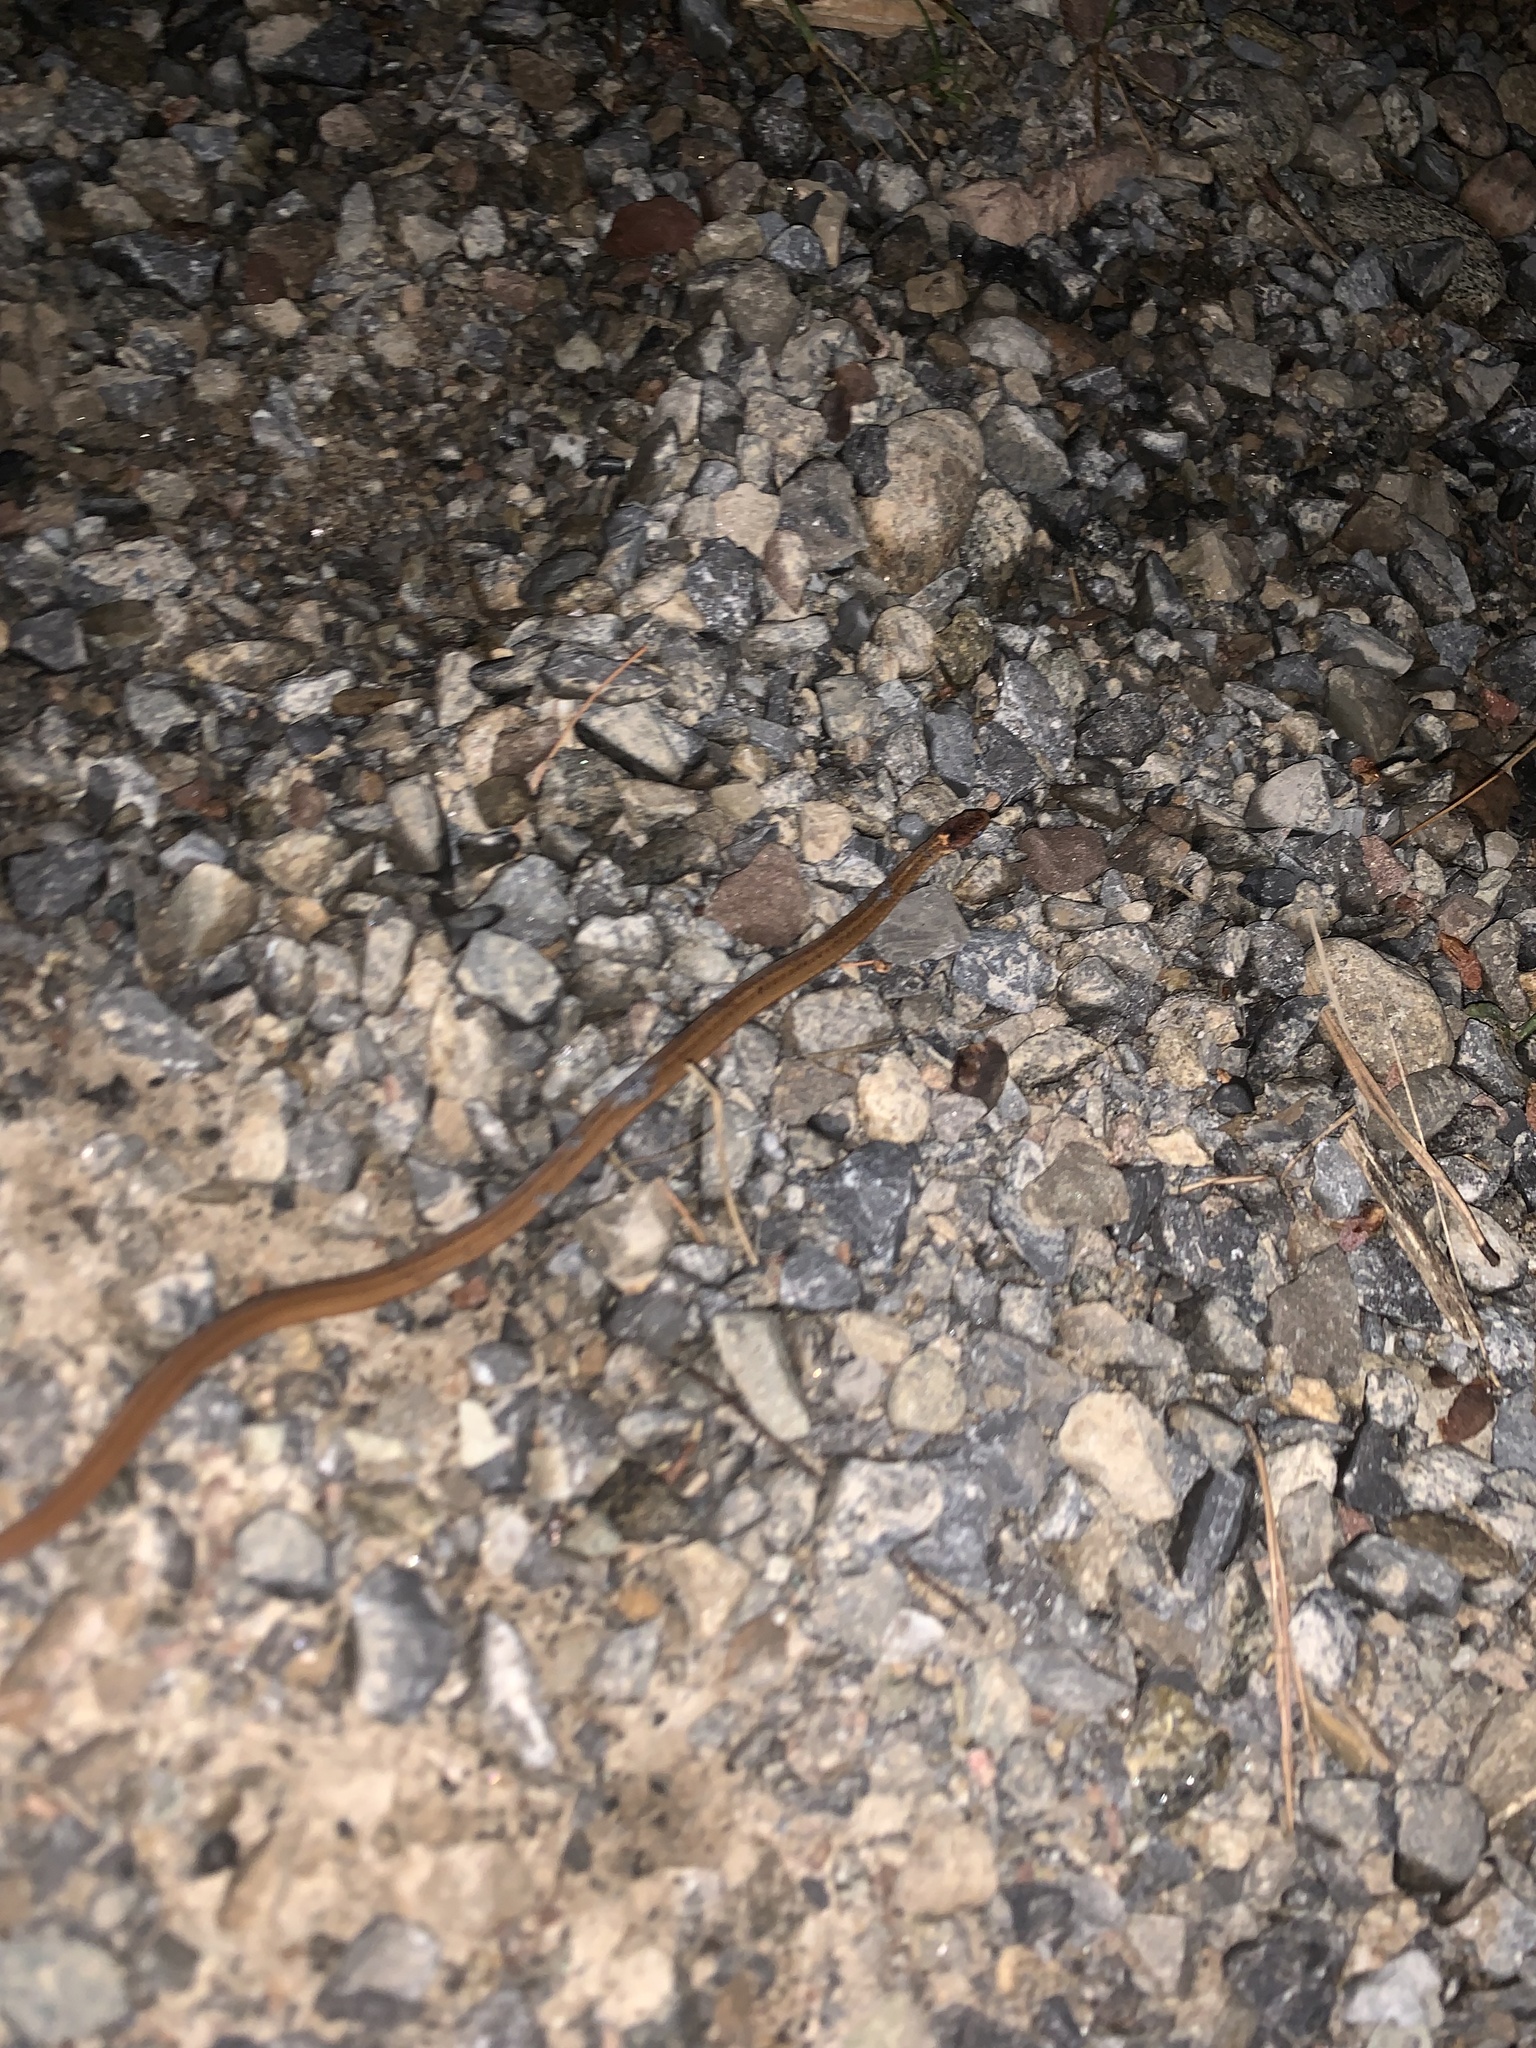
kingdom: Animalia
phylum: Chordata
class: Squamata
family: Colubridae
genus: Storeria
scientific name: Storeria occipitomaculata
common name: Redbelly snake
